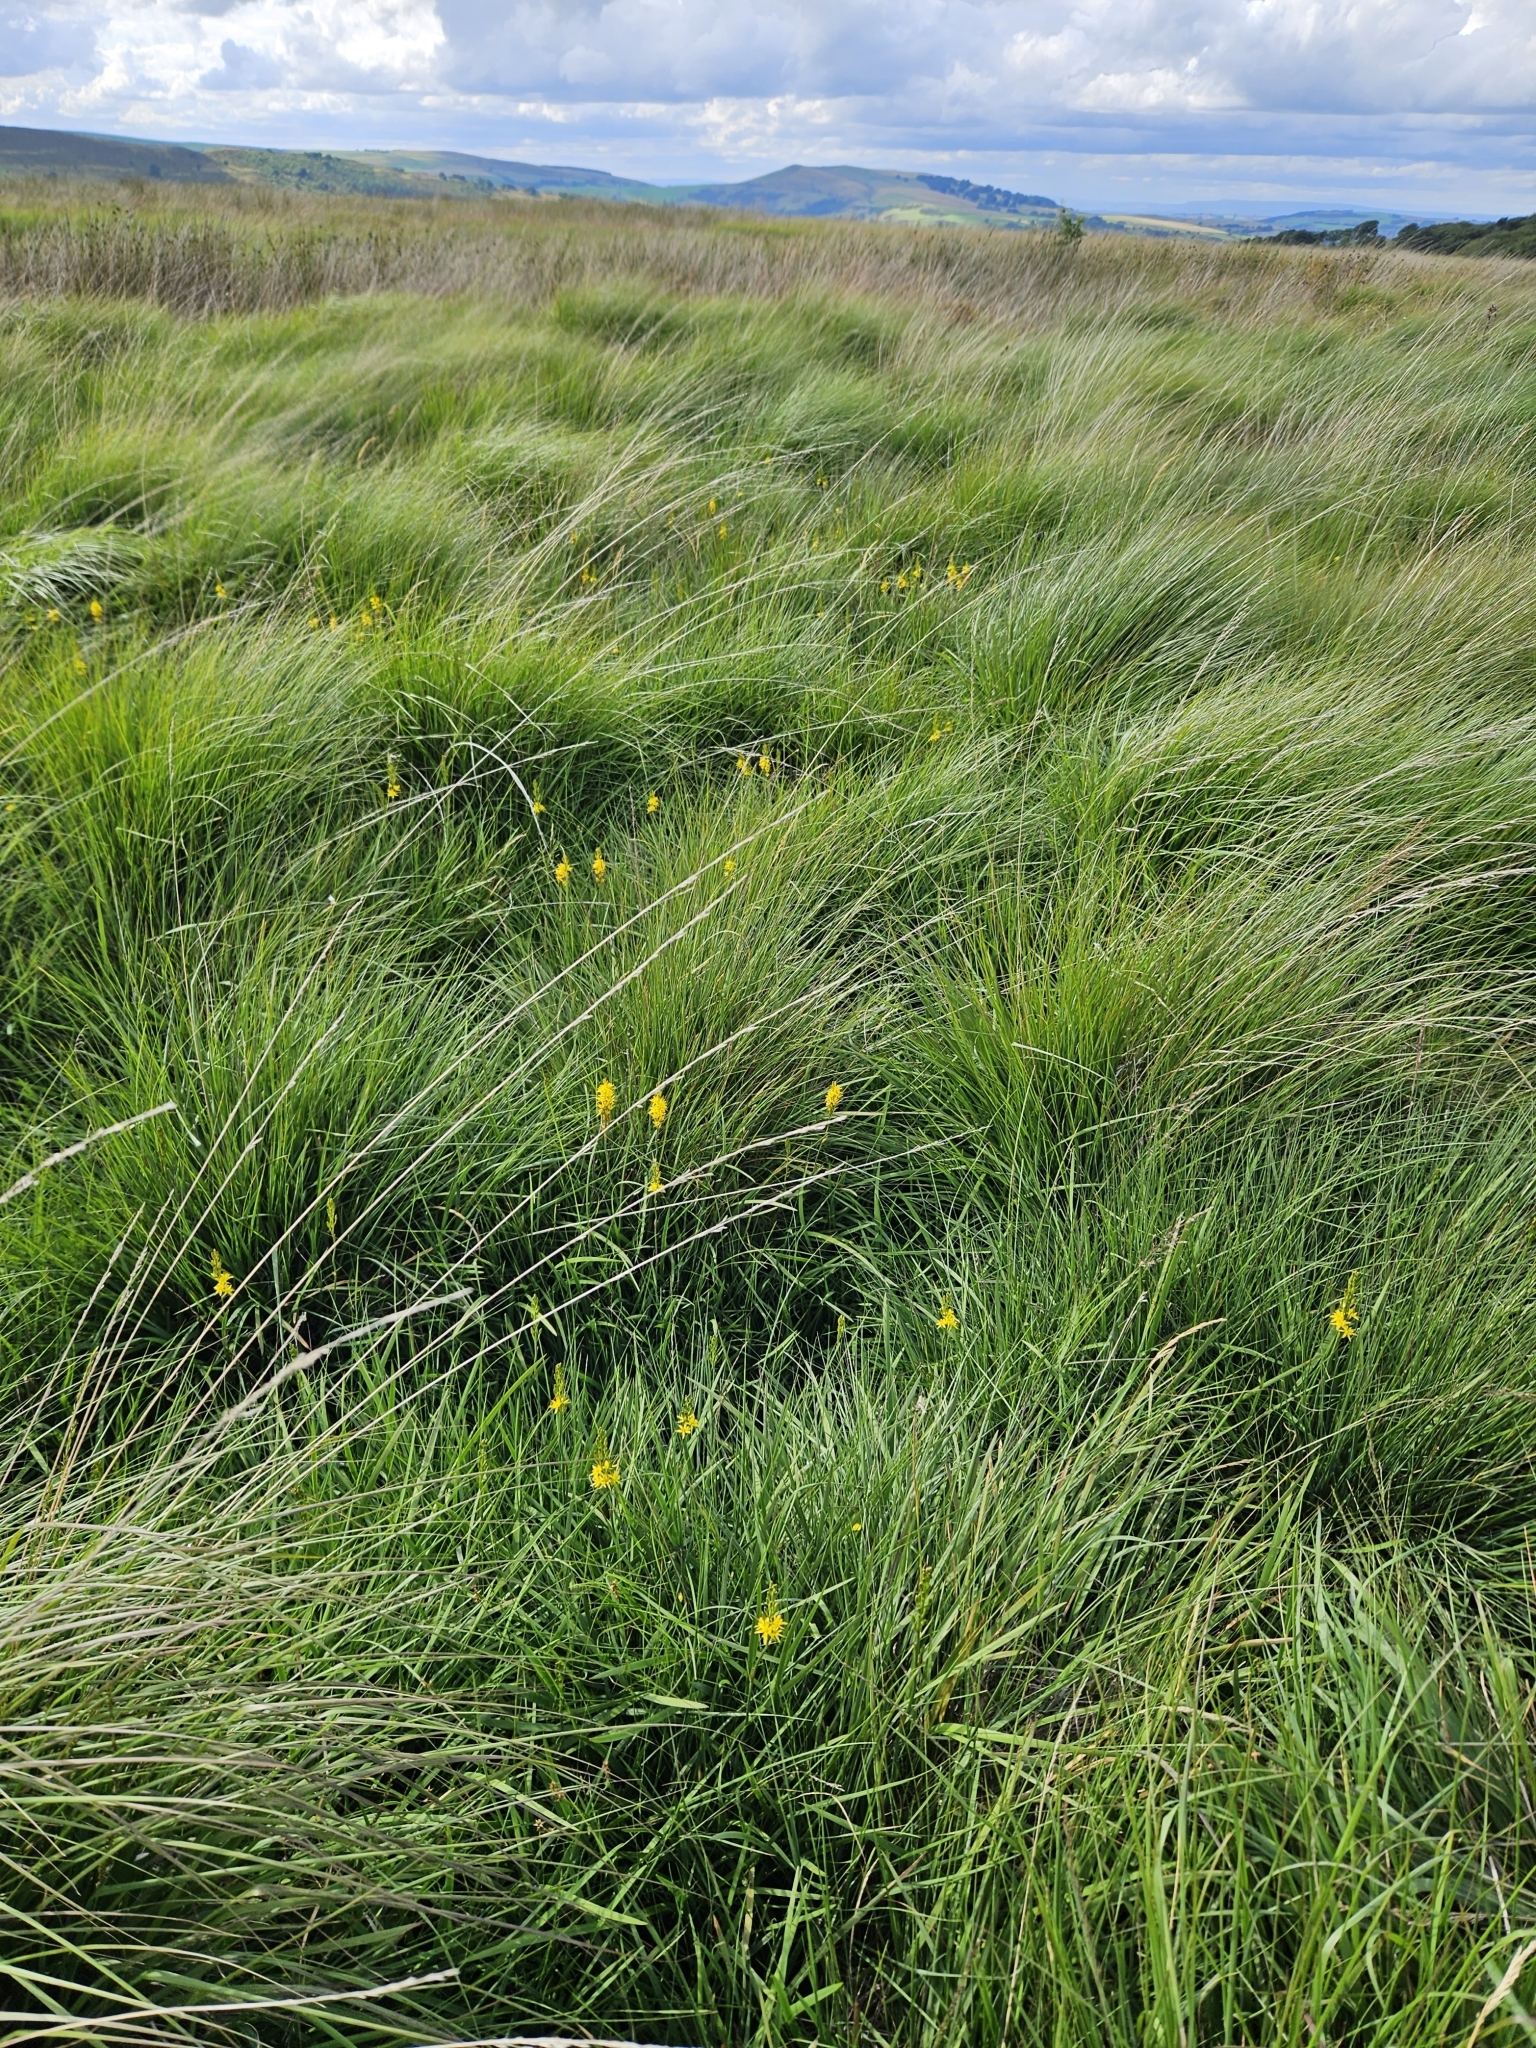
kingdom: Plantae
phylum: Tracheophyta
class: Liliopsida
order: Dioscoreales
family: Nartheciaceae
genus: Narthecium
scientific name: Narthecium ossifragum
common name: Bog asphodel
